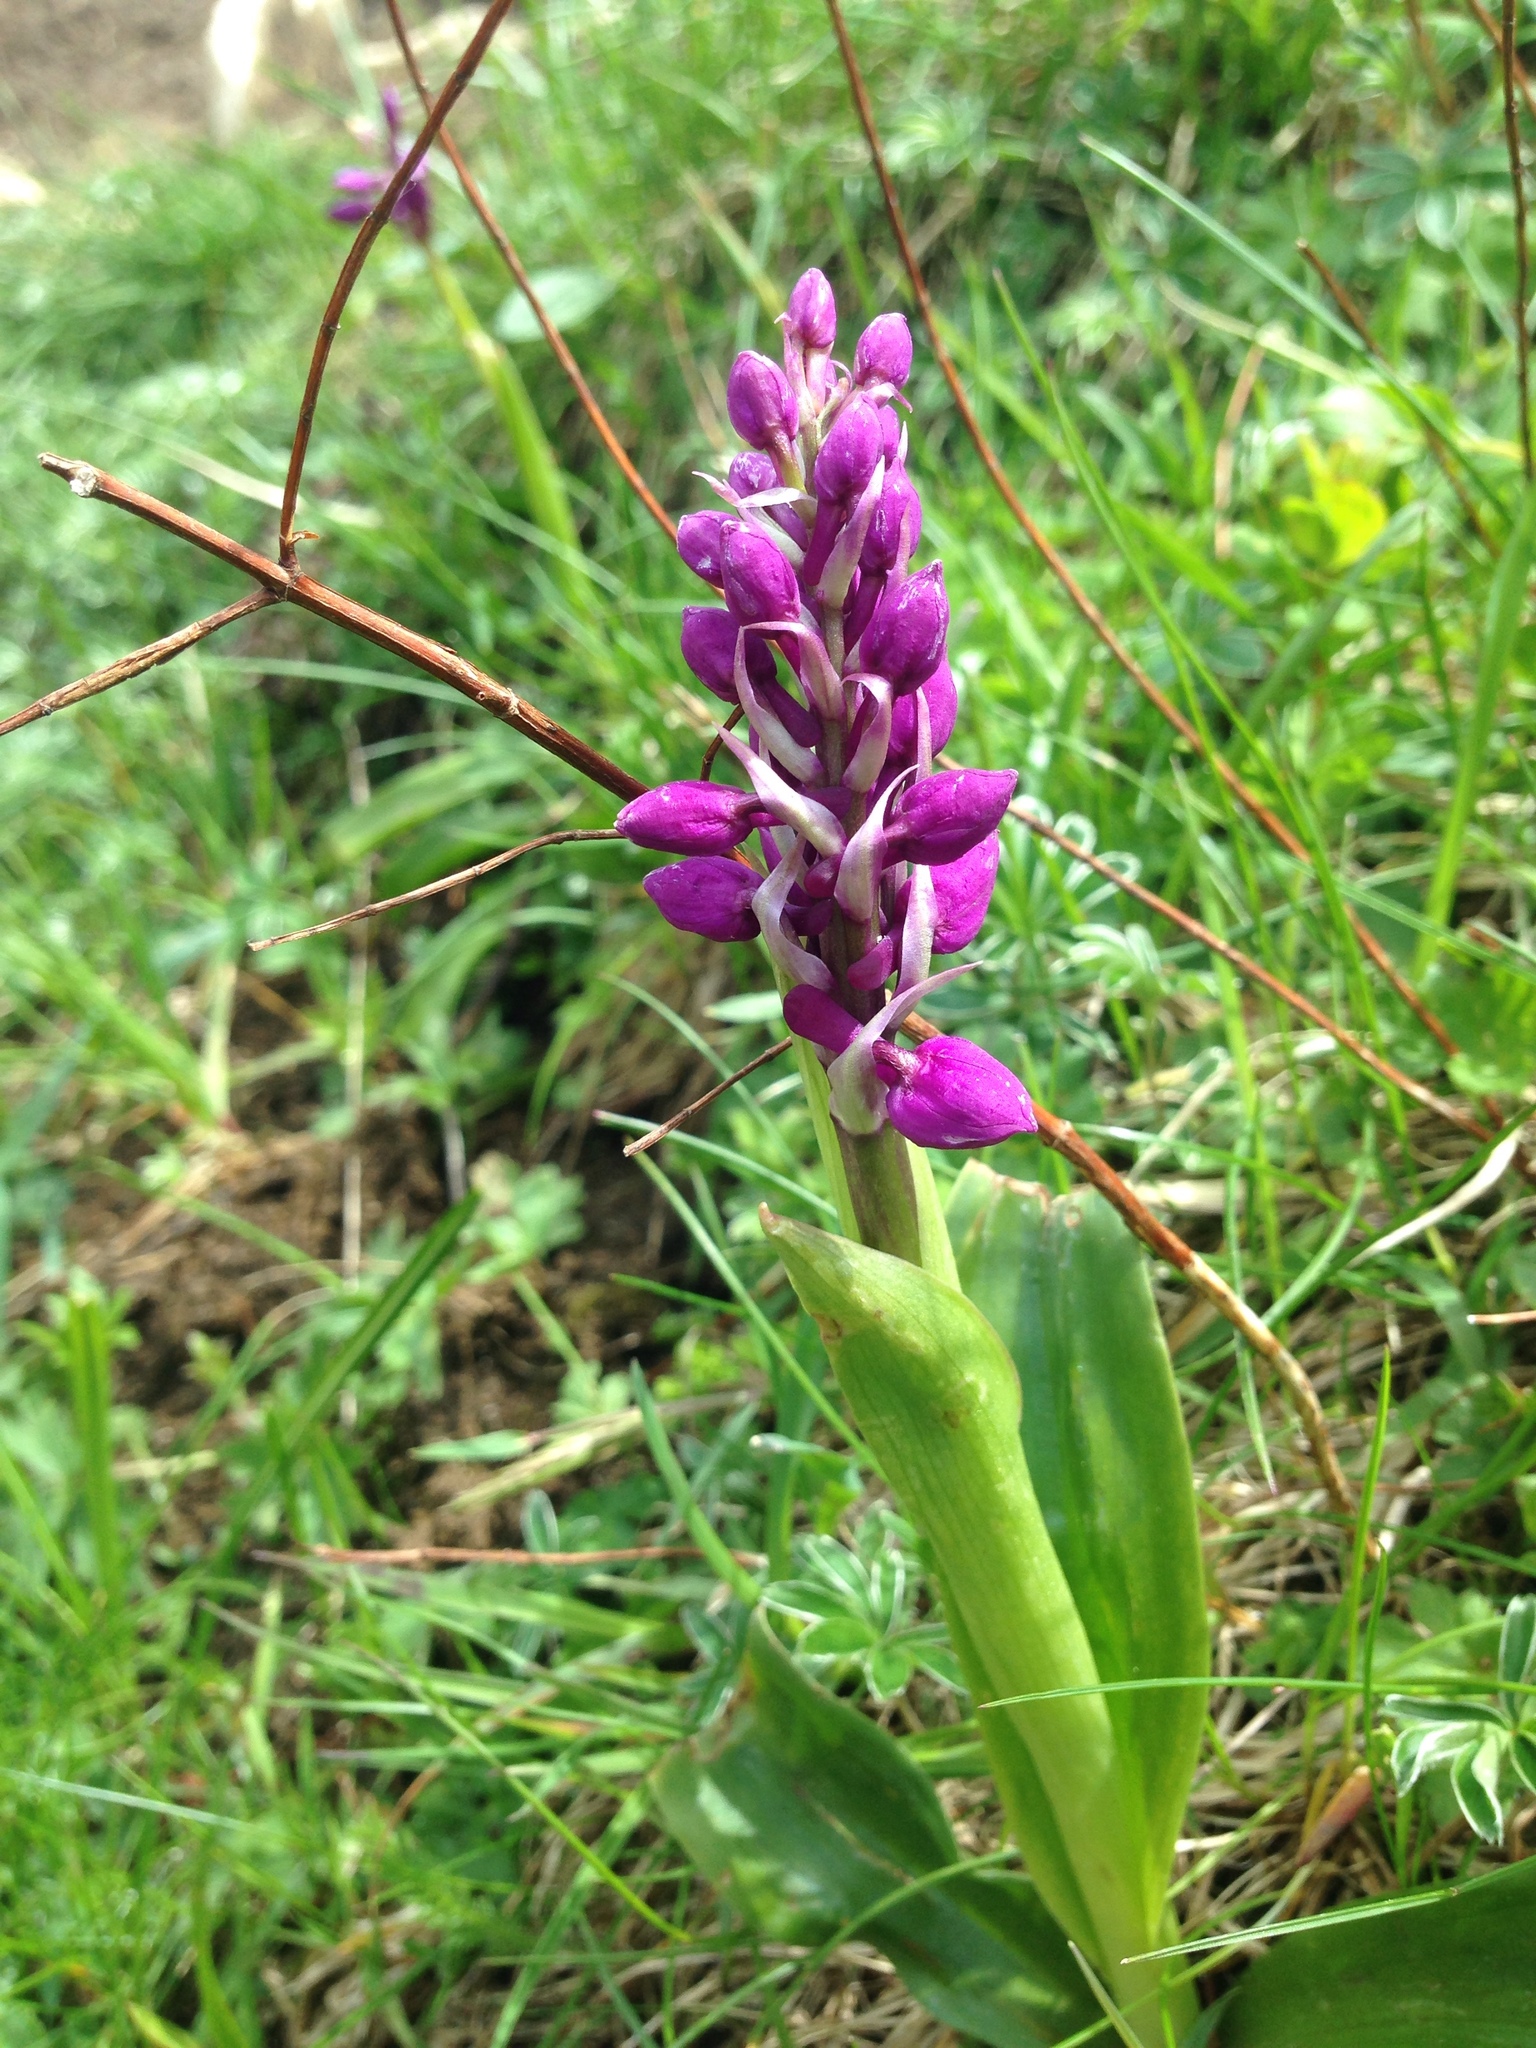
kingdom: Plantae
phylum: Tracheophyta
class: Liliopsida
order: Asparagales
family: Orchidaceae
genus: Orchis
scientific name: Orchis mascula
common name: Early-purple orchid
